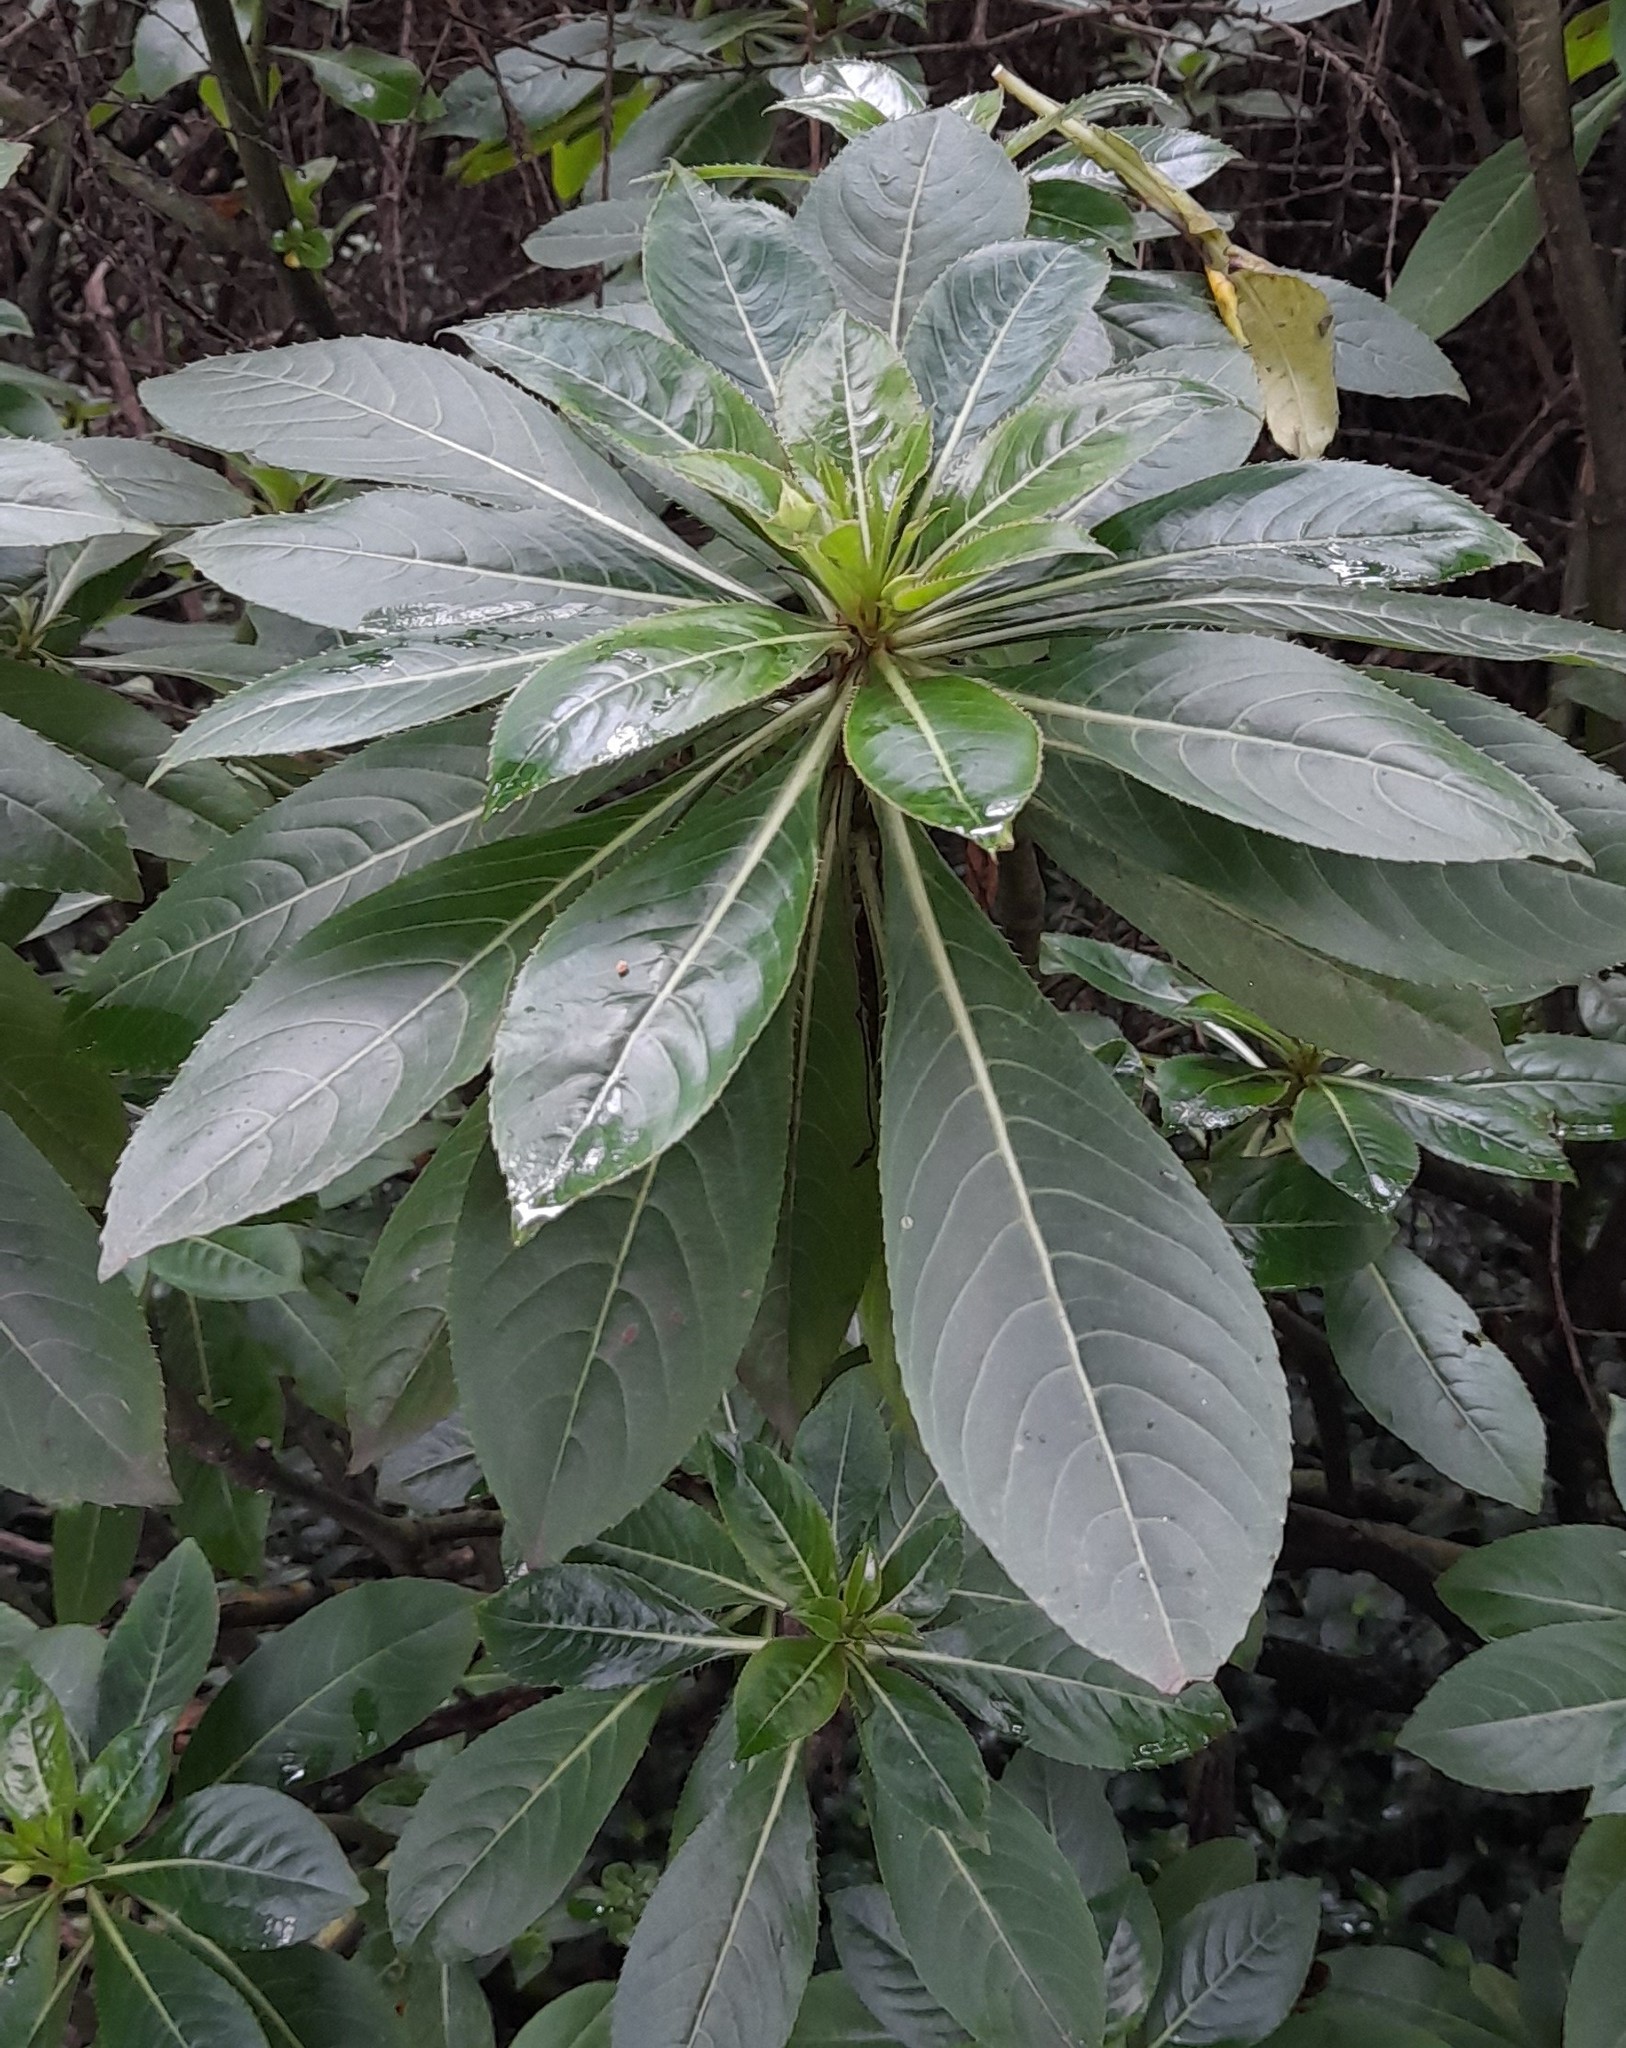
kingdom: Plantae
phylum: Tracheophyta
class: Magnoliopsida
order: Ericales
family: Balsaminaceae
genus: Impatiens
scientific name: Impatiens sodenii
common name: Oliver's touch-me-not
